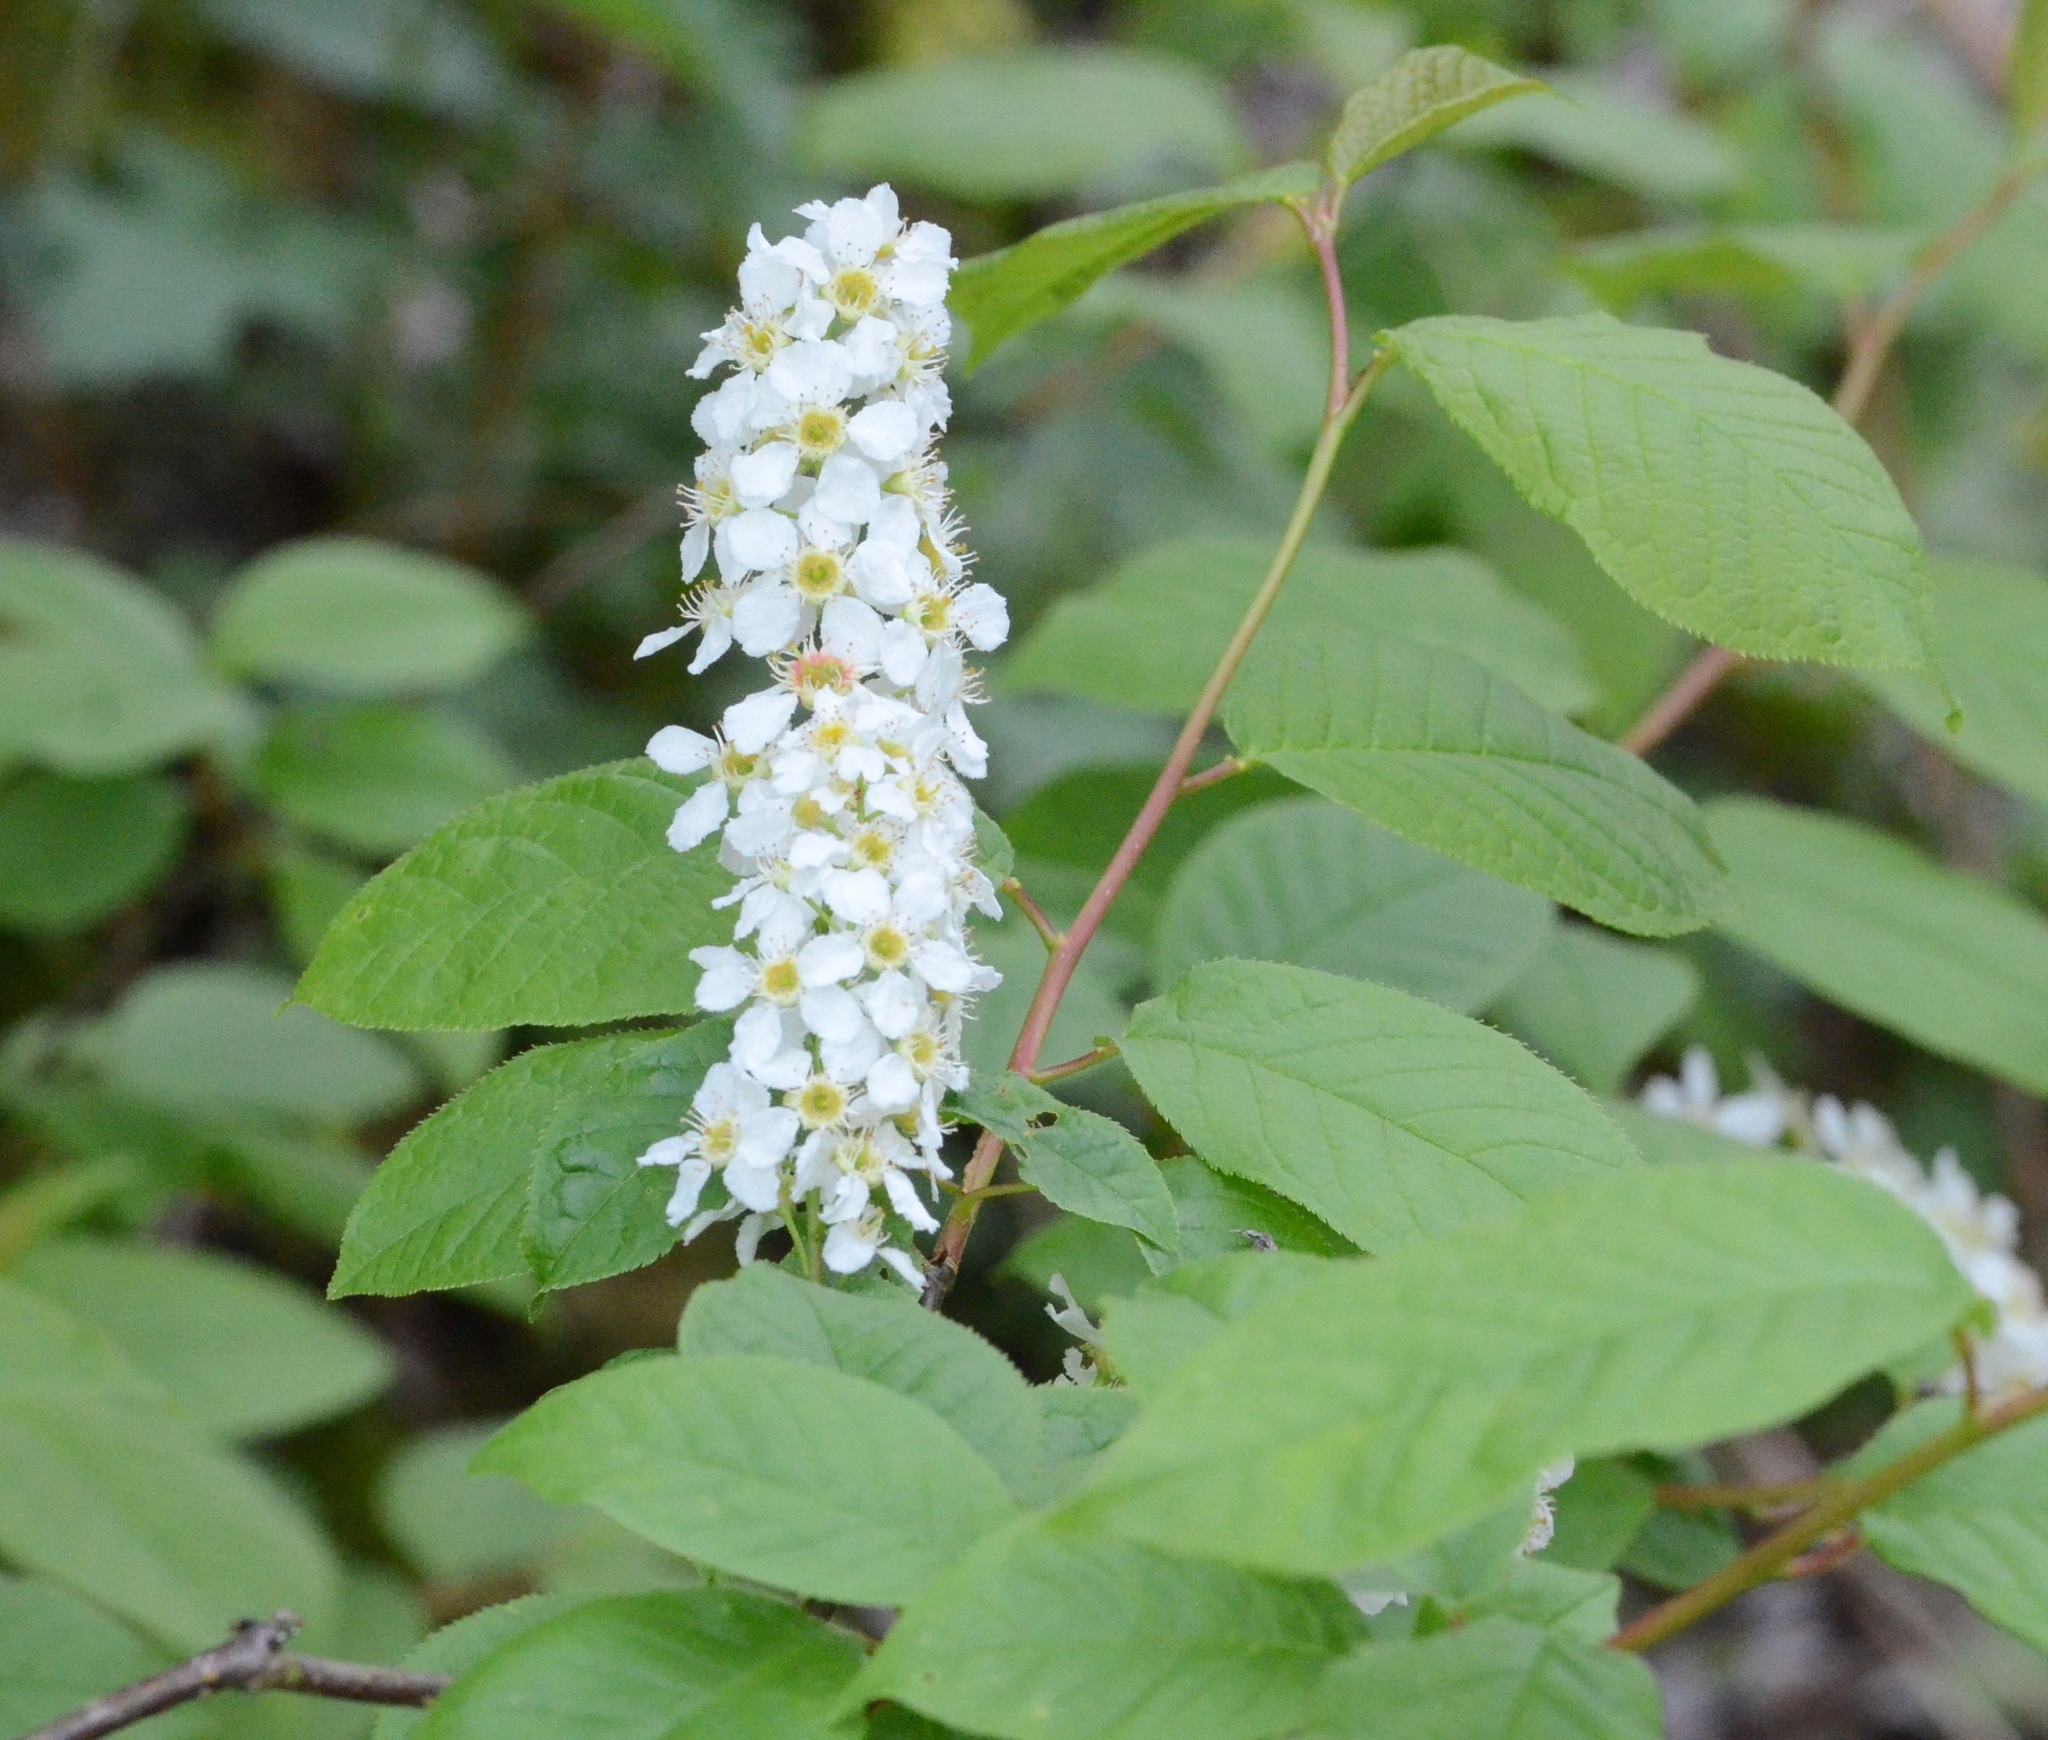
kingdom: Plantae
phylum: Tracheophyta
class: Magnoliopsida
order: Rosales
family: Rosaceae
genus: Prunus
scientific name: Prunus padus
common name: Bird cherry
